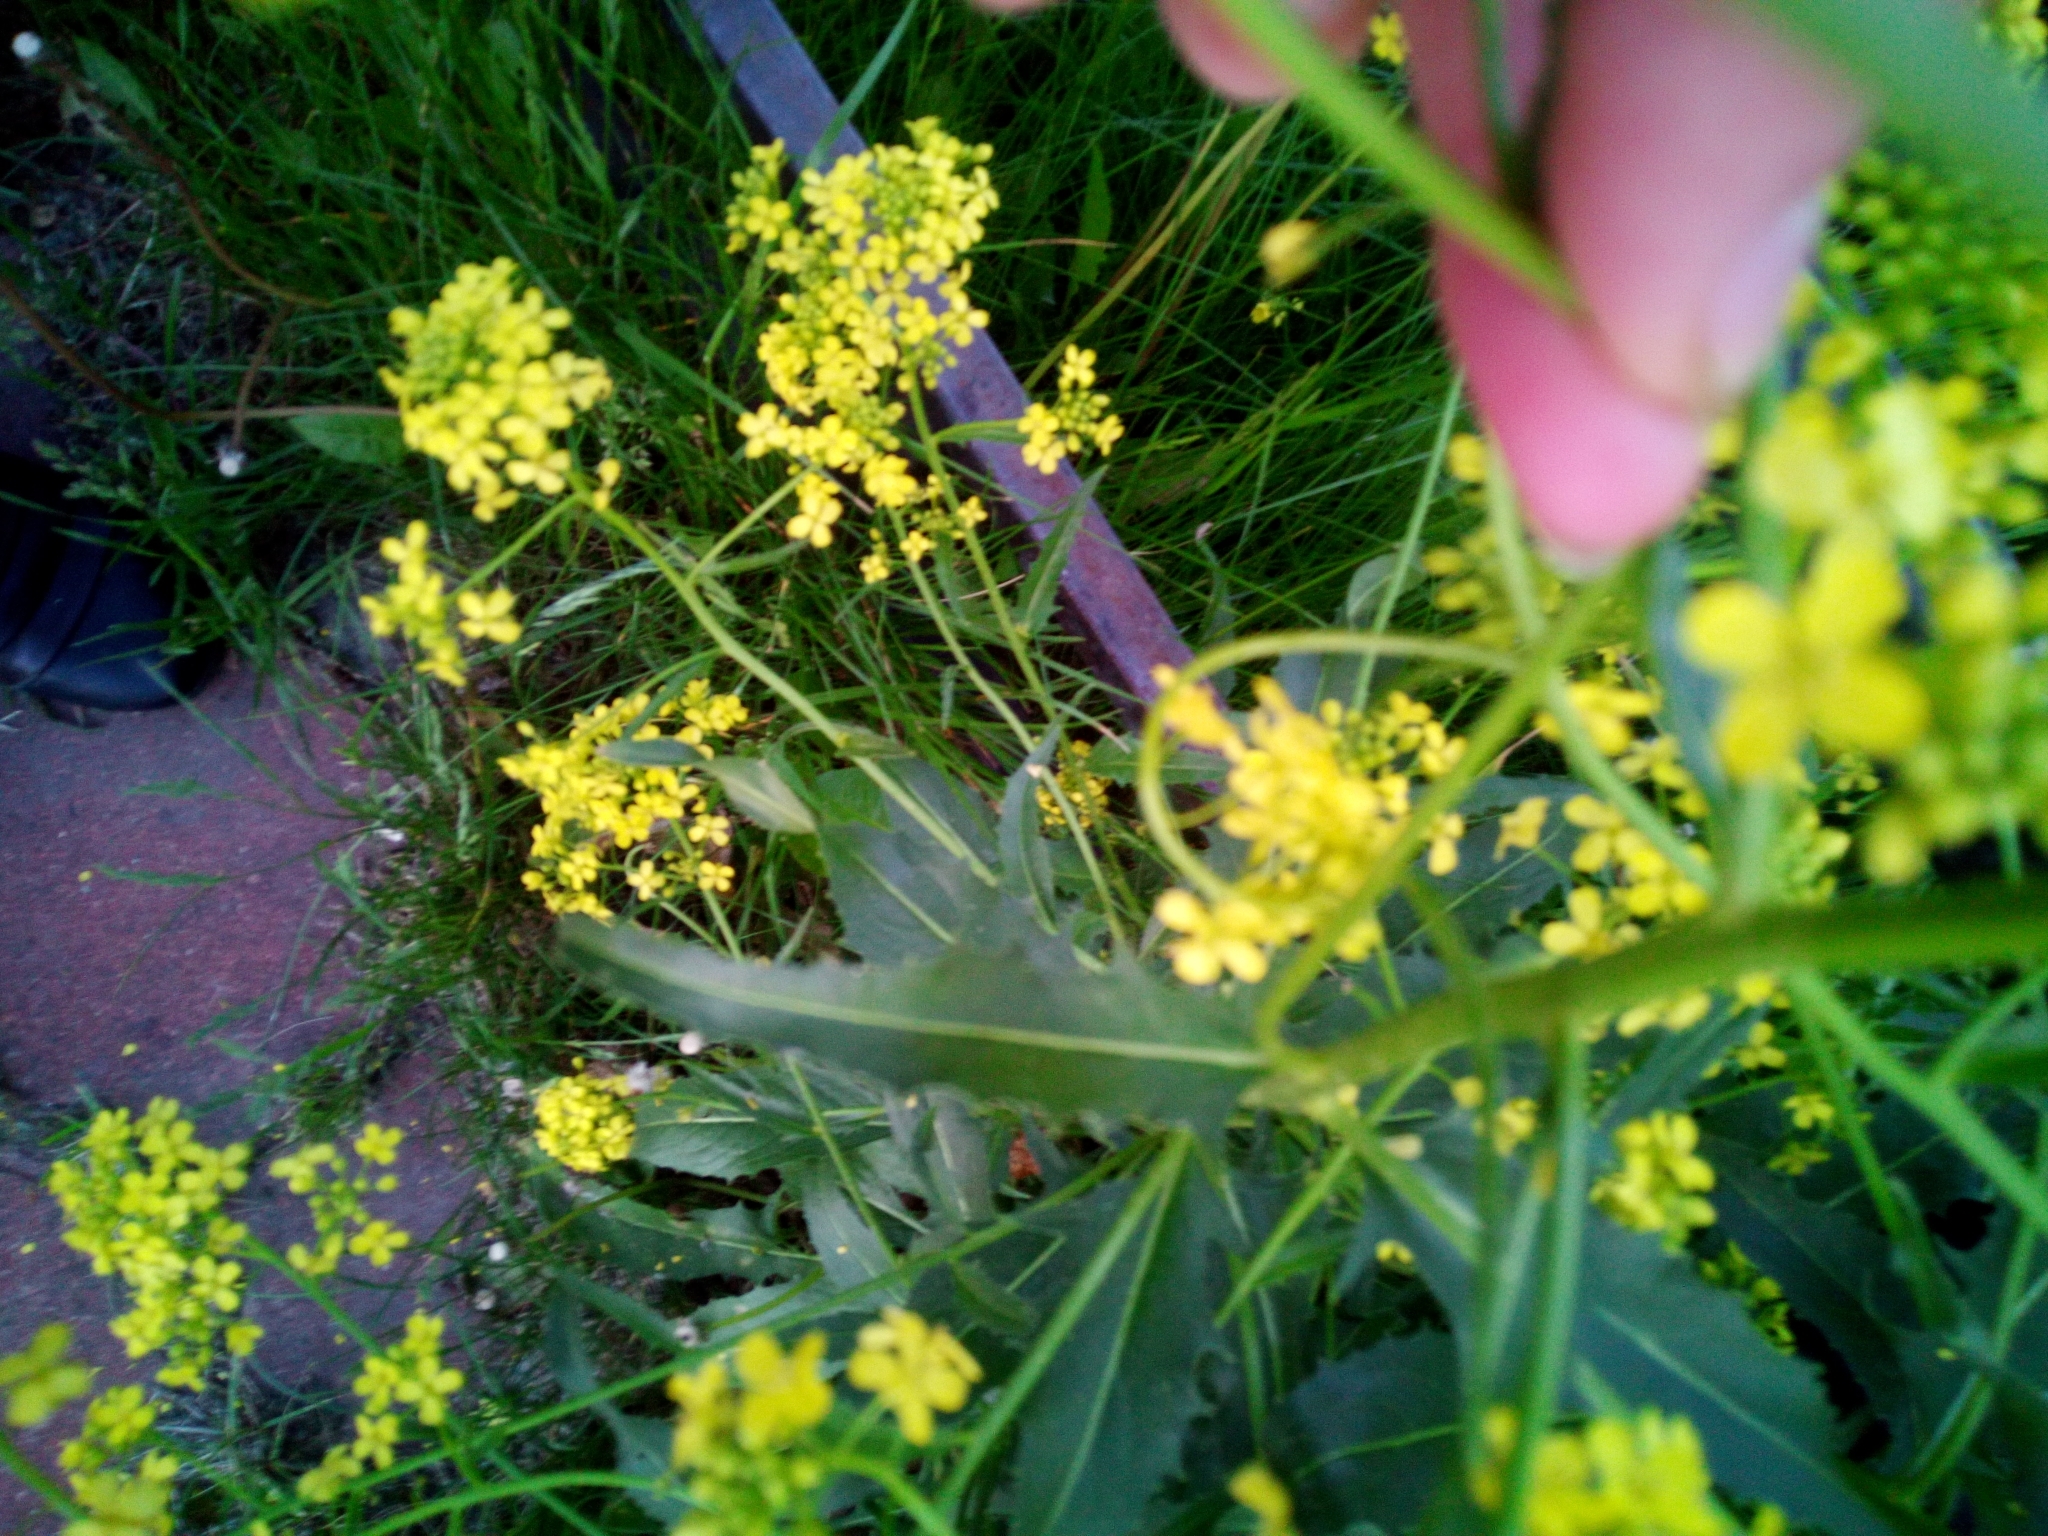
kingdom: Plantae
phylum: Tracheophyta
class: Magnoliopsida
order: Brassicales
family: Brassicaceae
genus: Bunias
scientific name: Bunias orientalis
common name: Warty-cabbage
